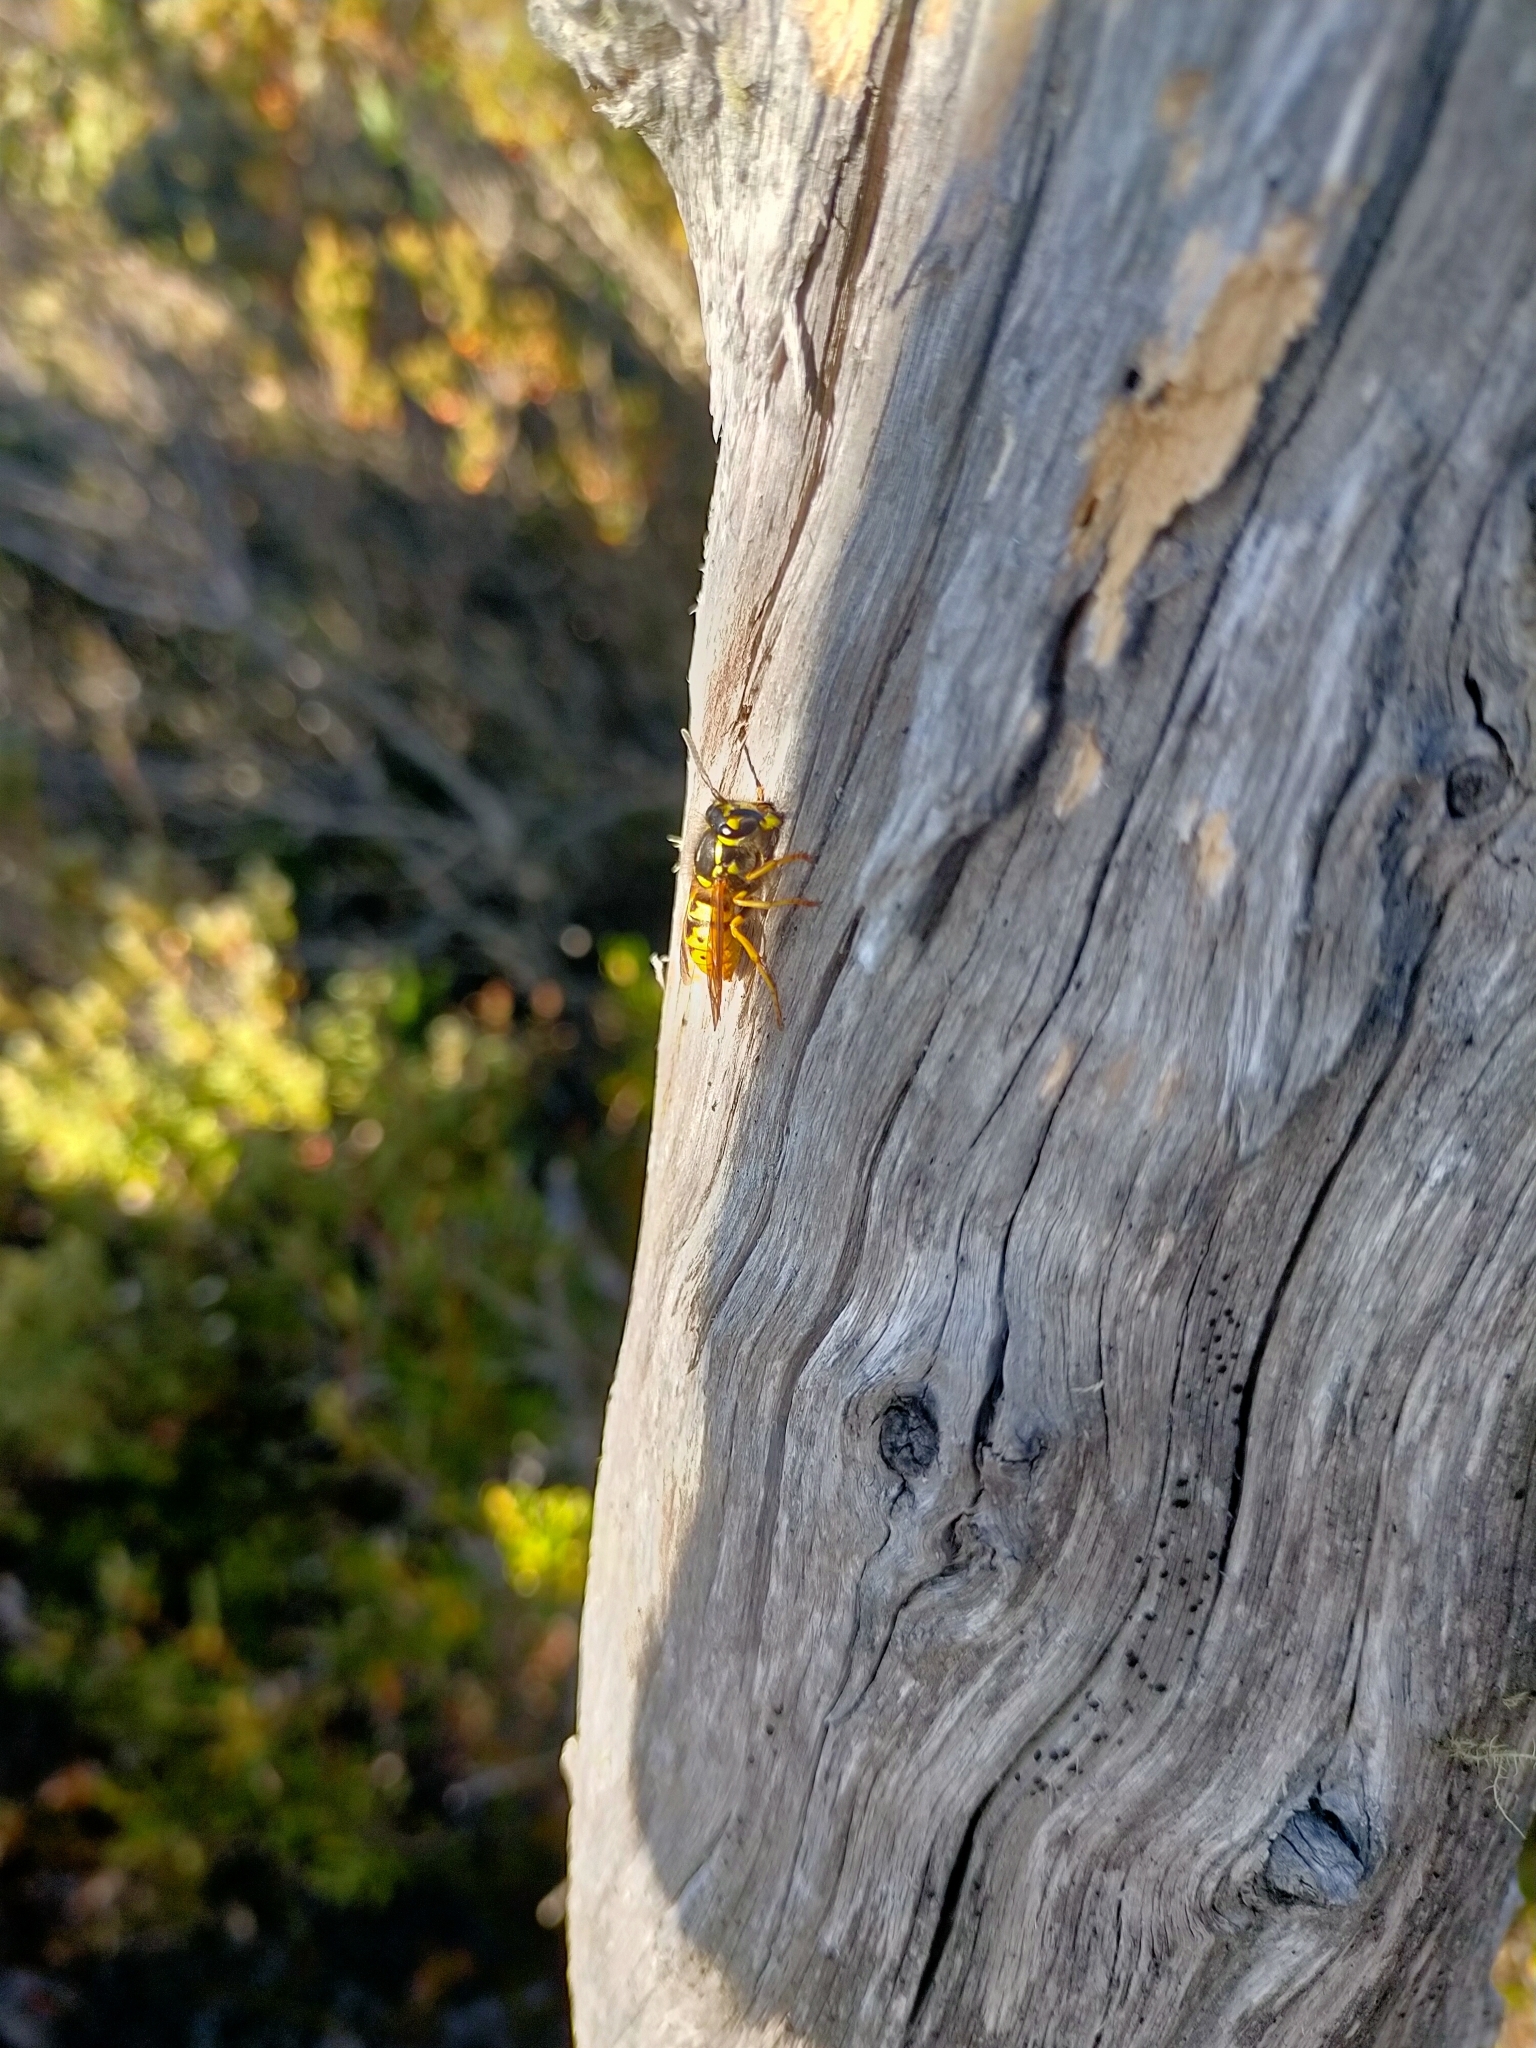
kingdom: Animalia
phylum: Arthropoda
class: Insecta
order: Hymenoptera
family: Vespidae
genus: Vespula
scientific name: Vespula germanica
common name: German wasp
